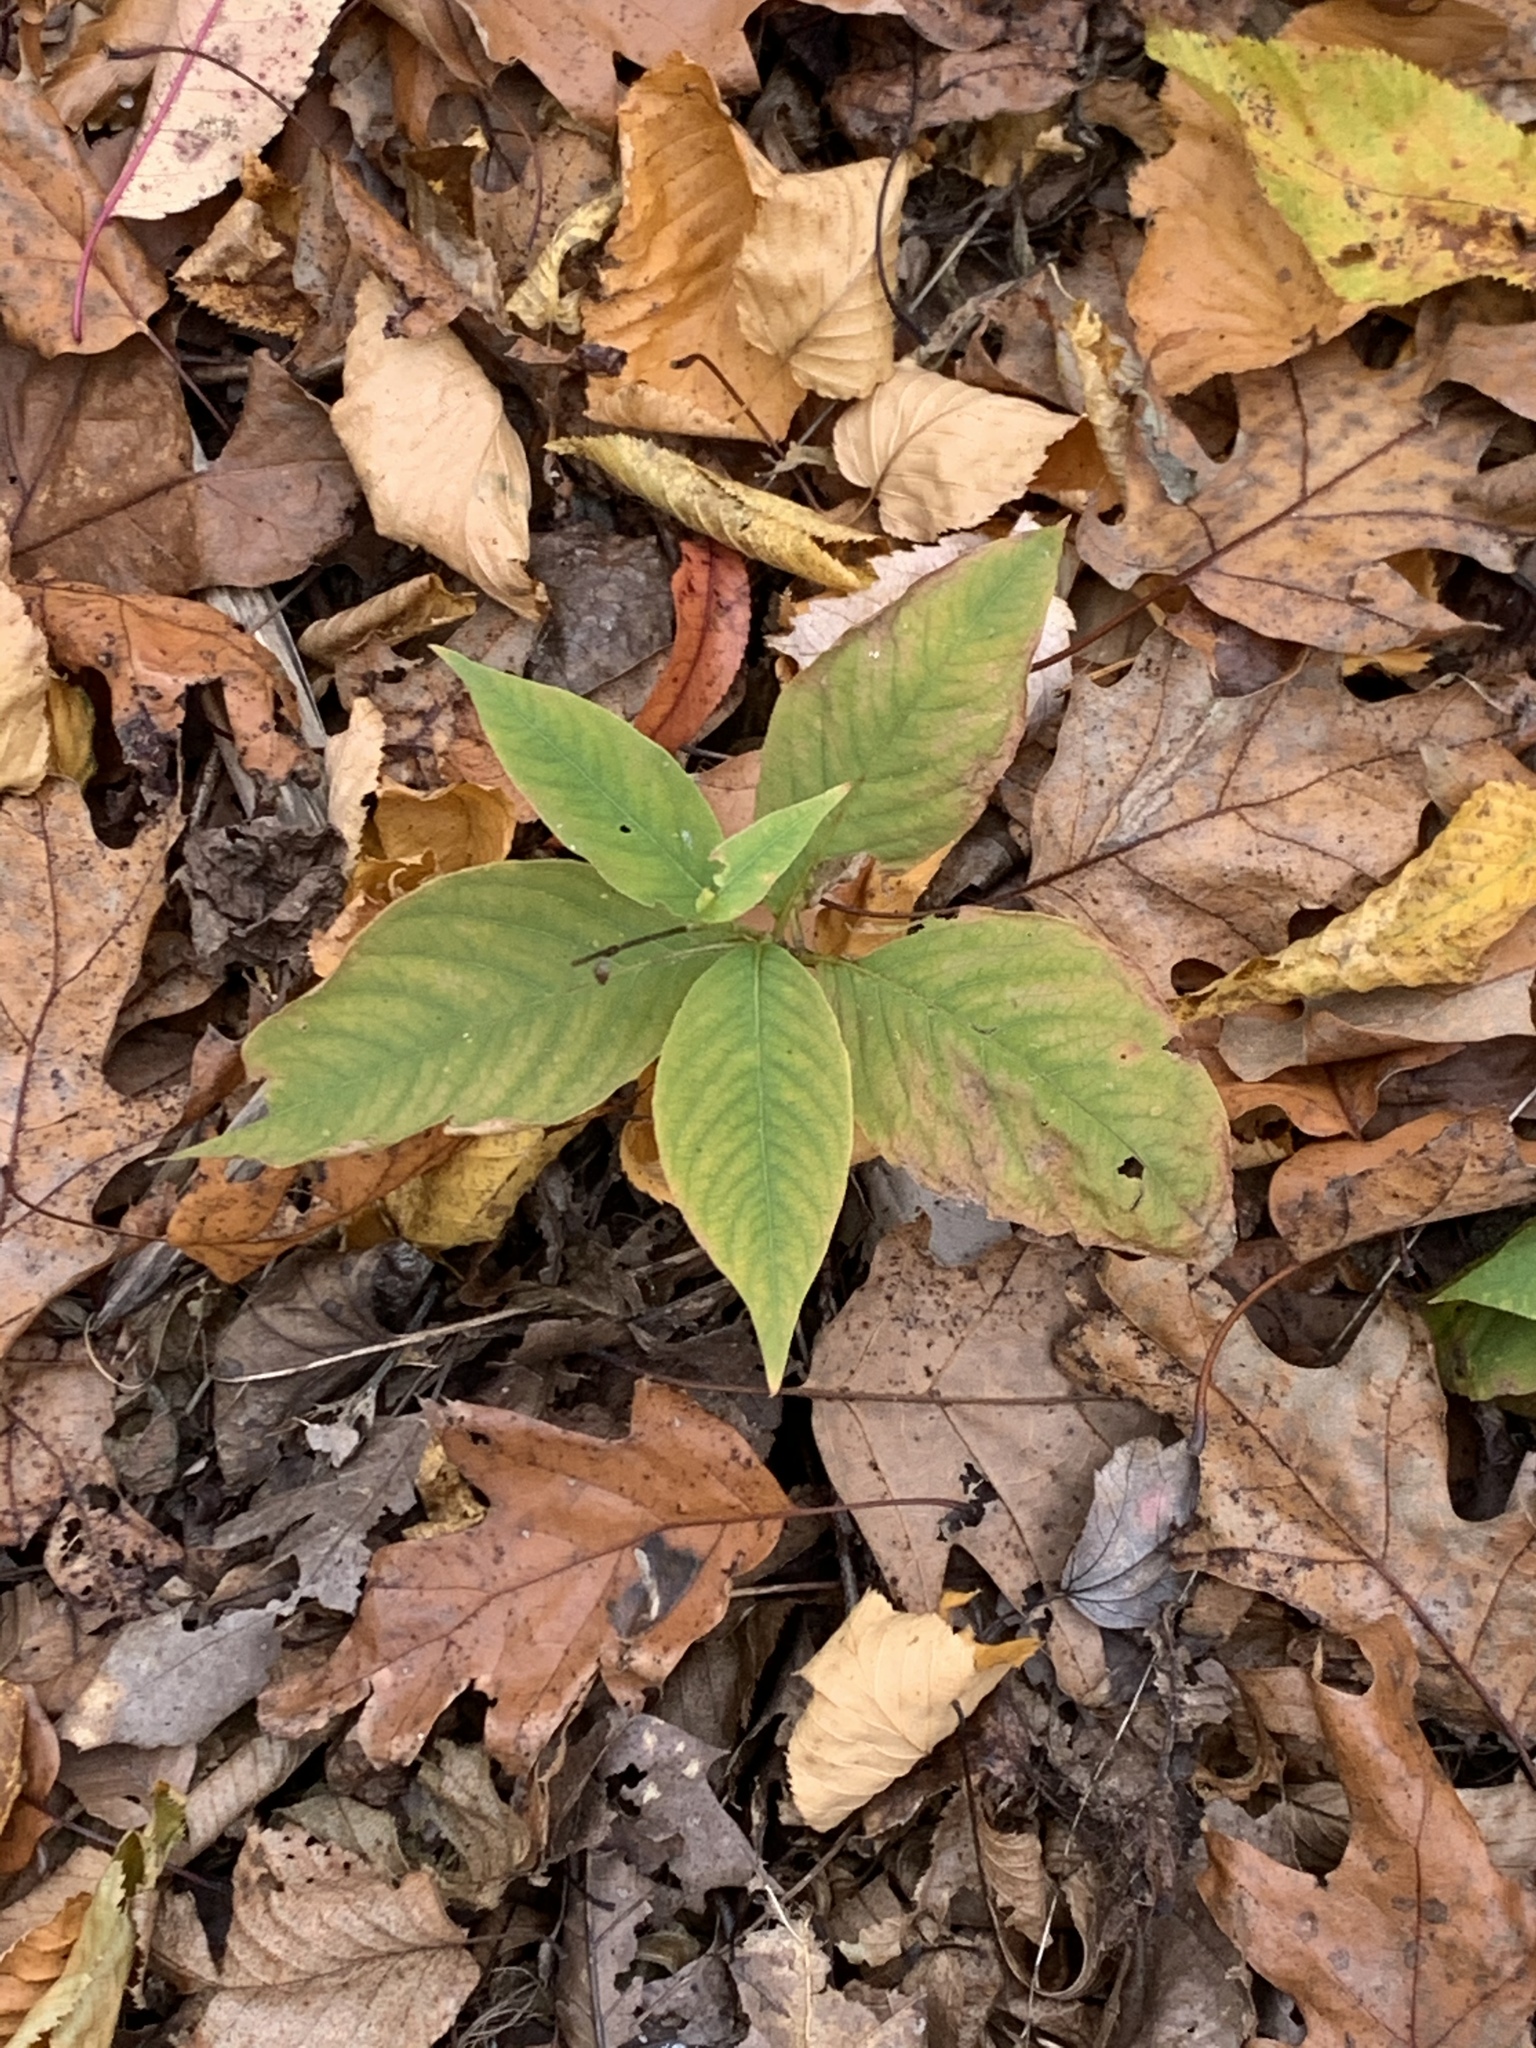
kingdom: Plantae
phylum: Tracheophyta
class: Magnoliopsida
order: Caryophyllales
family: Polygonaceae
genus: Persicaria
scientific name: Persicaria virginiana
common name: Jumpseed
